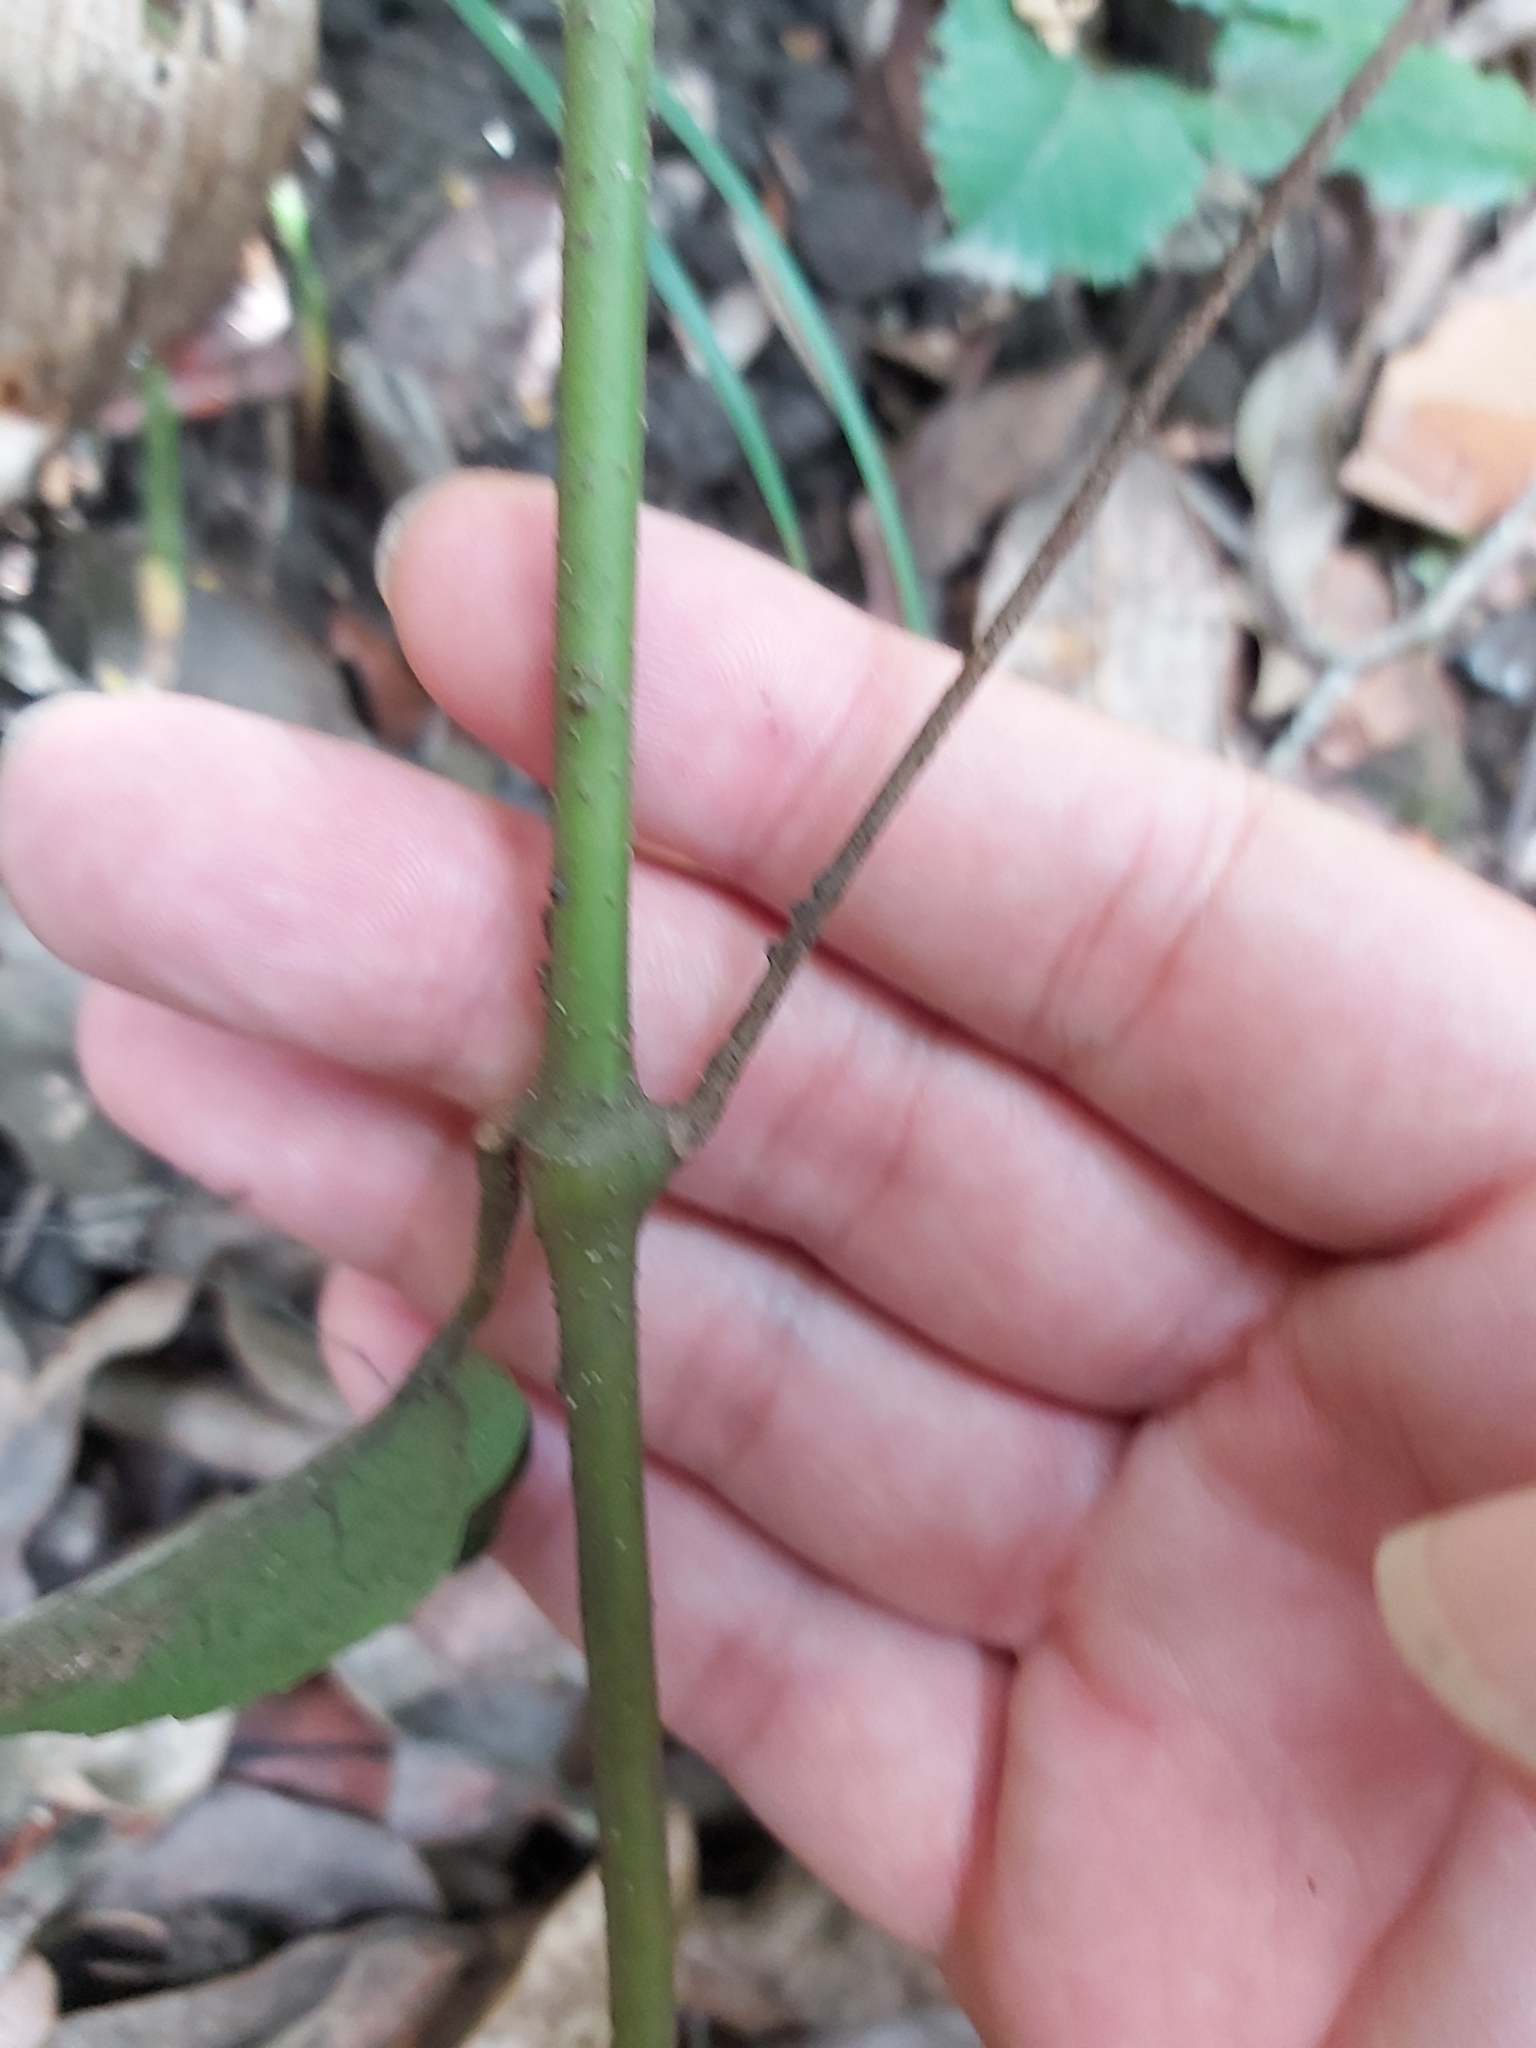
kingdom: Plantae
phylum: Tracheophyta
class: Magnoliopsida
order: Vitales
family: Vitaceae
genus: Cissus
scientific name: Cissus antarctica
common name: Kangaroo vine
